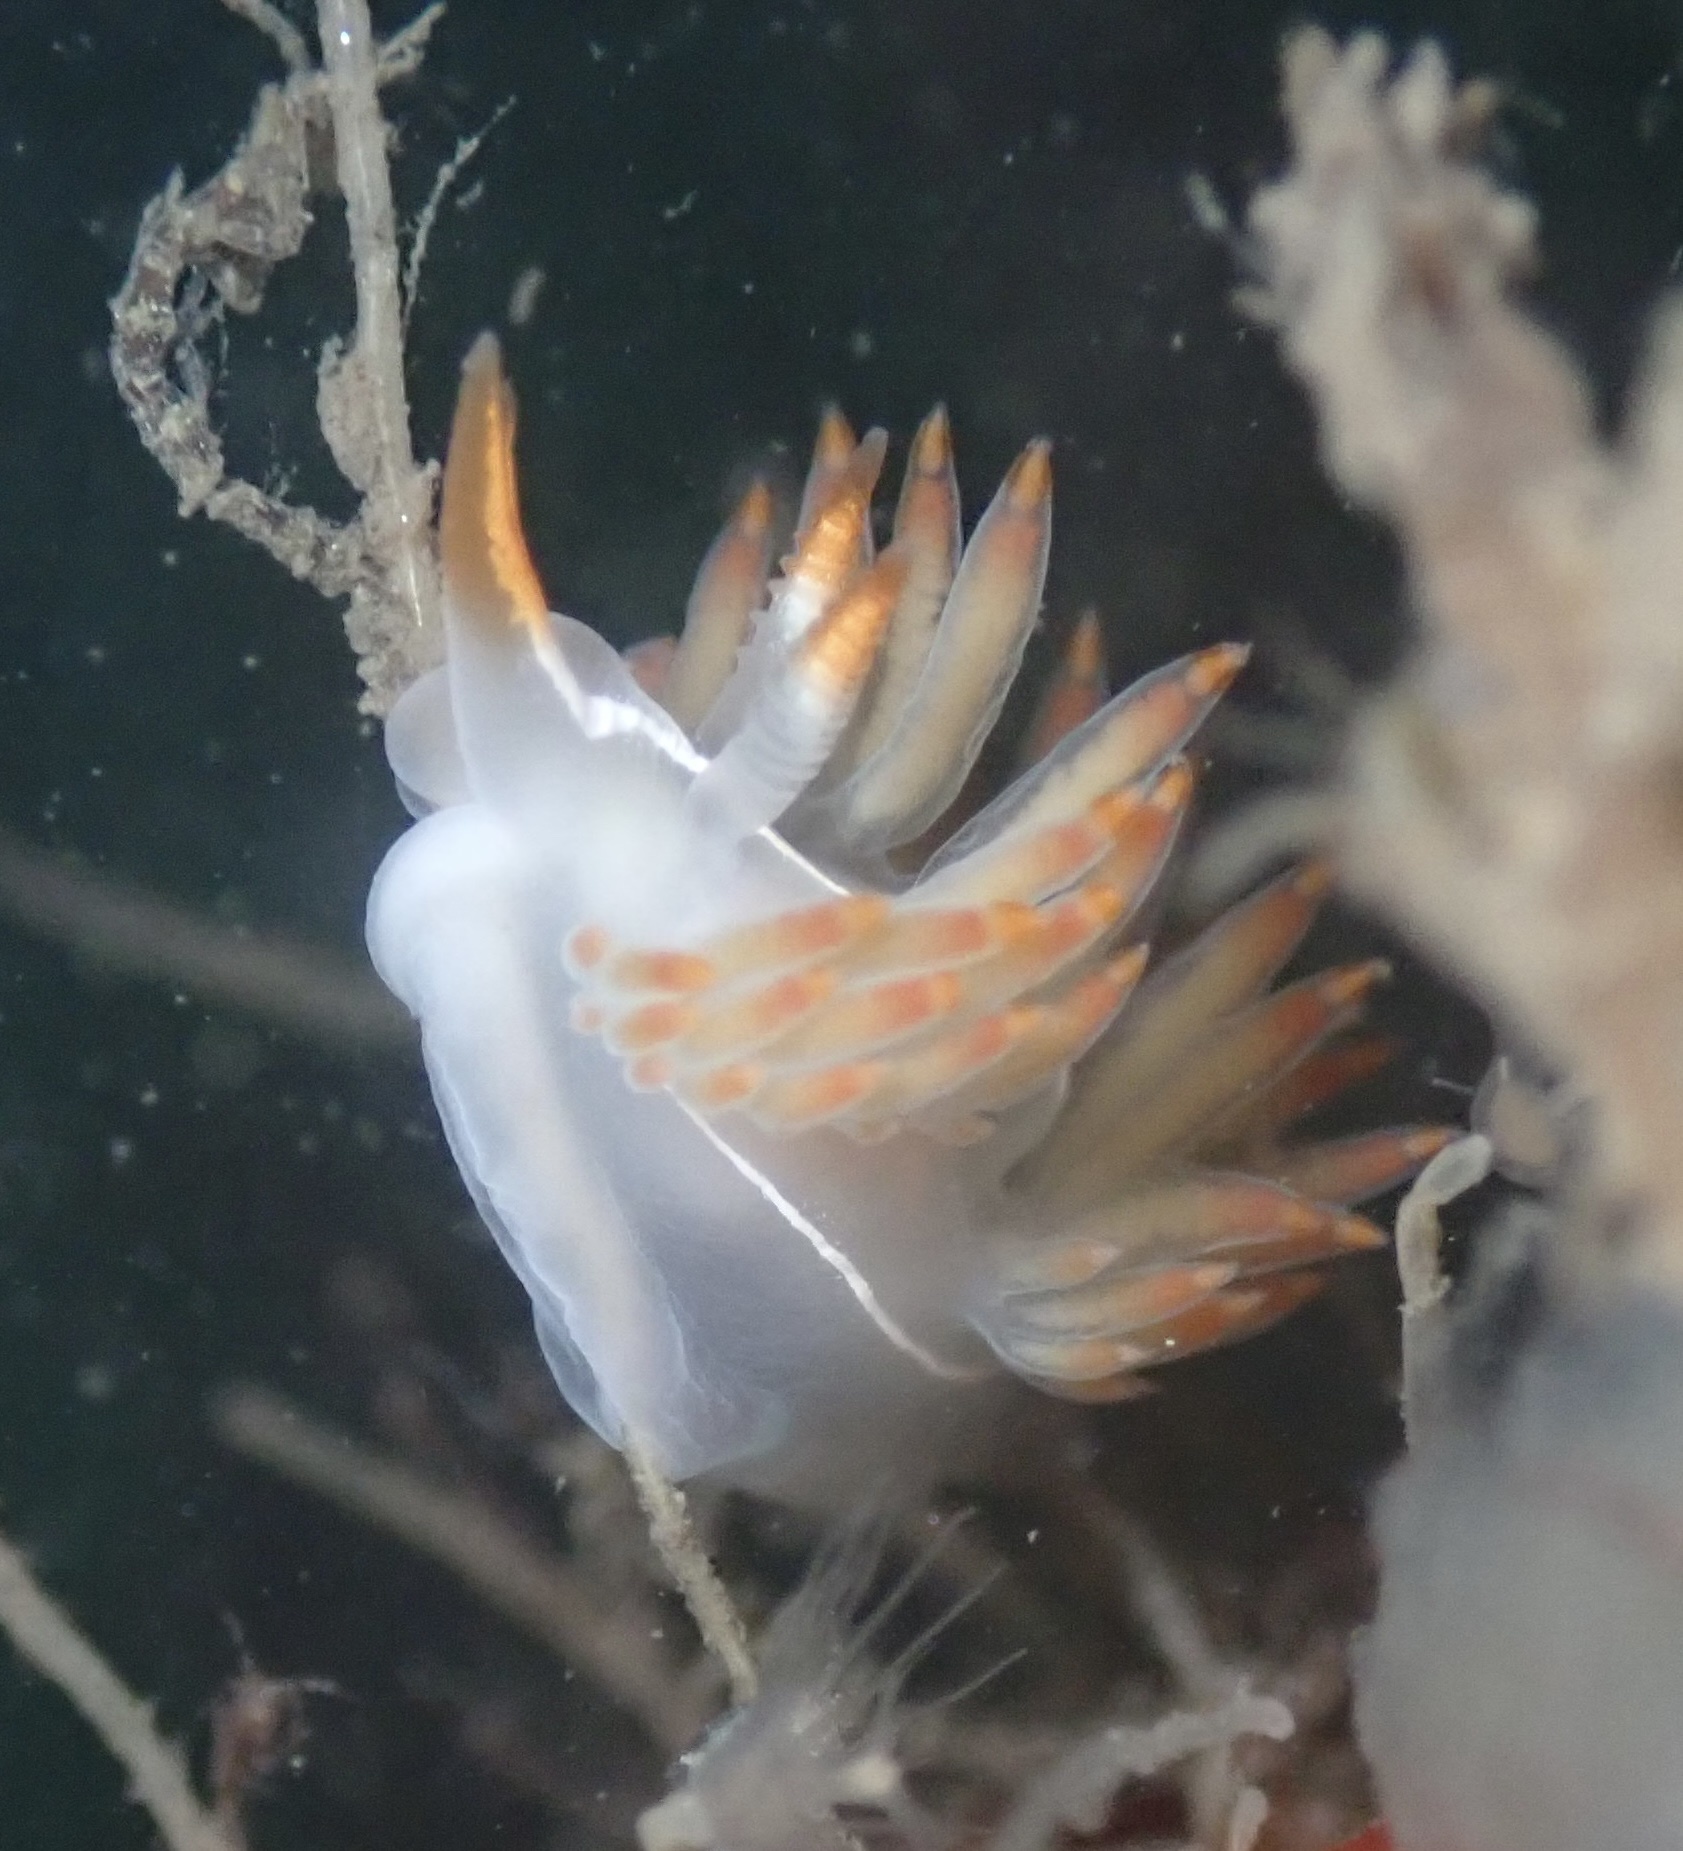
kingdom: Animalia
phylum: Mollusca
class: Gastropoda
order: Nudibranchia
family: Coryphellidae
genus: Coryphella
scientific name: Coryphella trilineata
